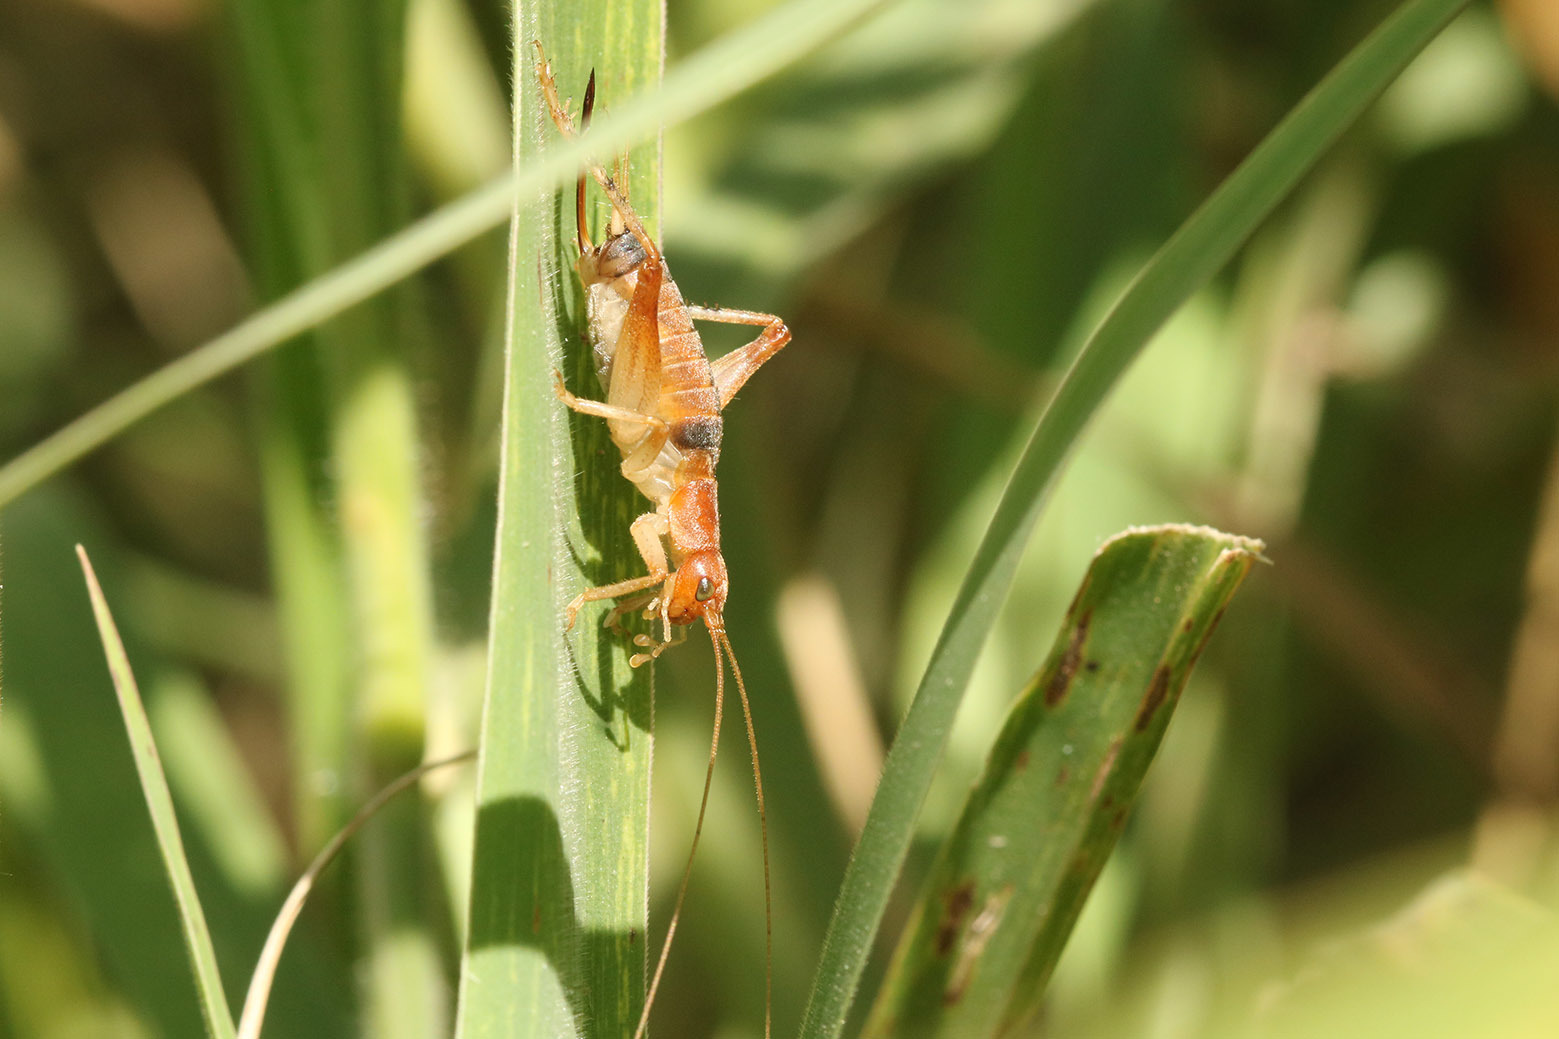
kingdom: Animalia
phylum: Arthropoda
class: Insecta
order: Orthoptera
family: Gryllidae
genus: Neometrypus
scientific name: Neometrypus aculeatus
